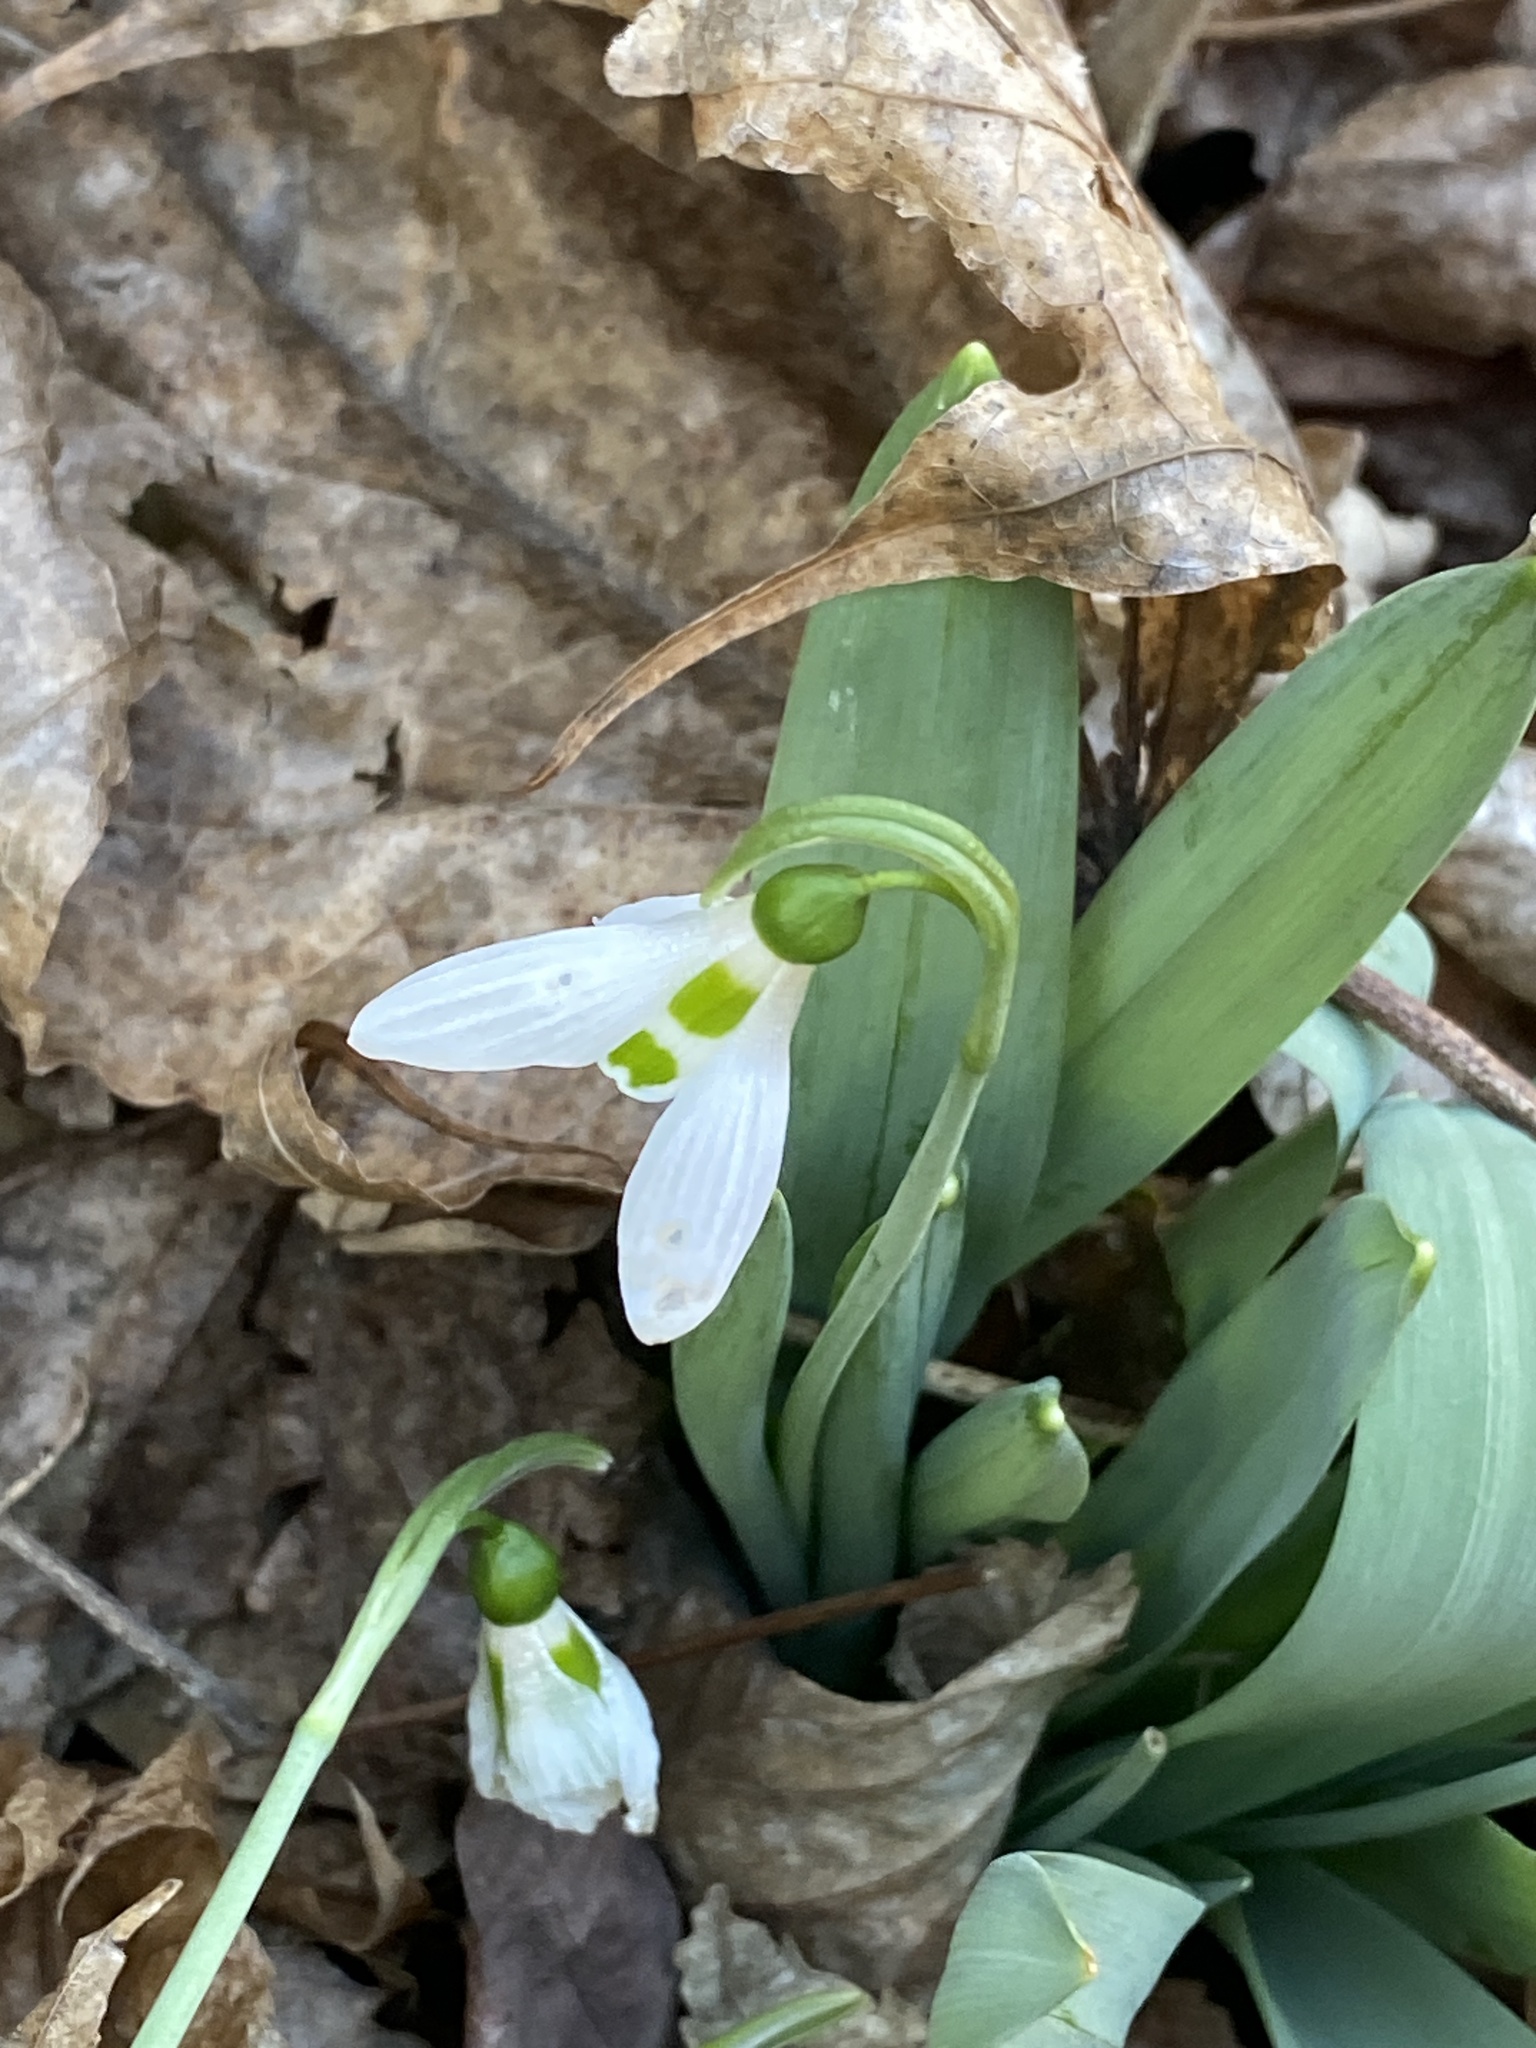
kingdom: Plantae
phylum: Tracheophyta
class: Liliopsida
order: Asparagales
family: Amaryllidaceae
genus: Galanthus
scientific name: Galanthus elwesii
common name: Greater snowdrop
